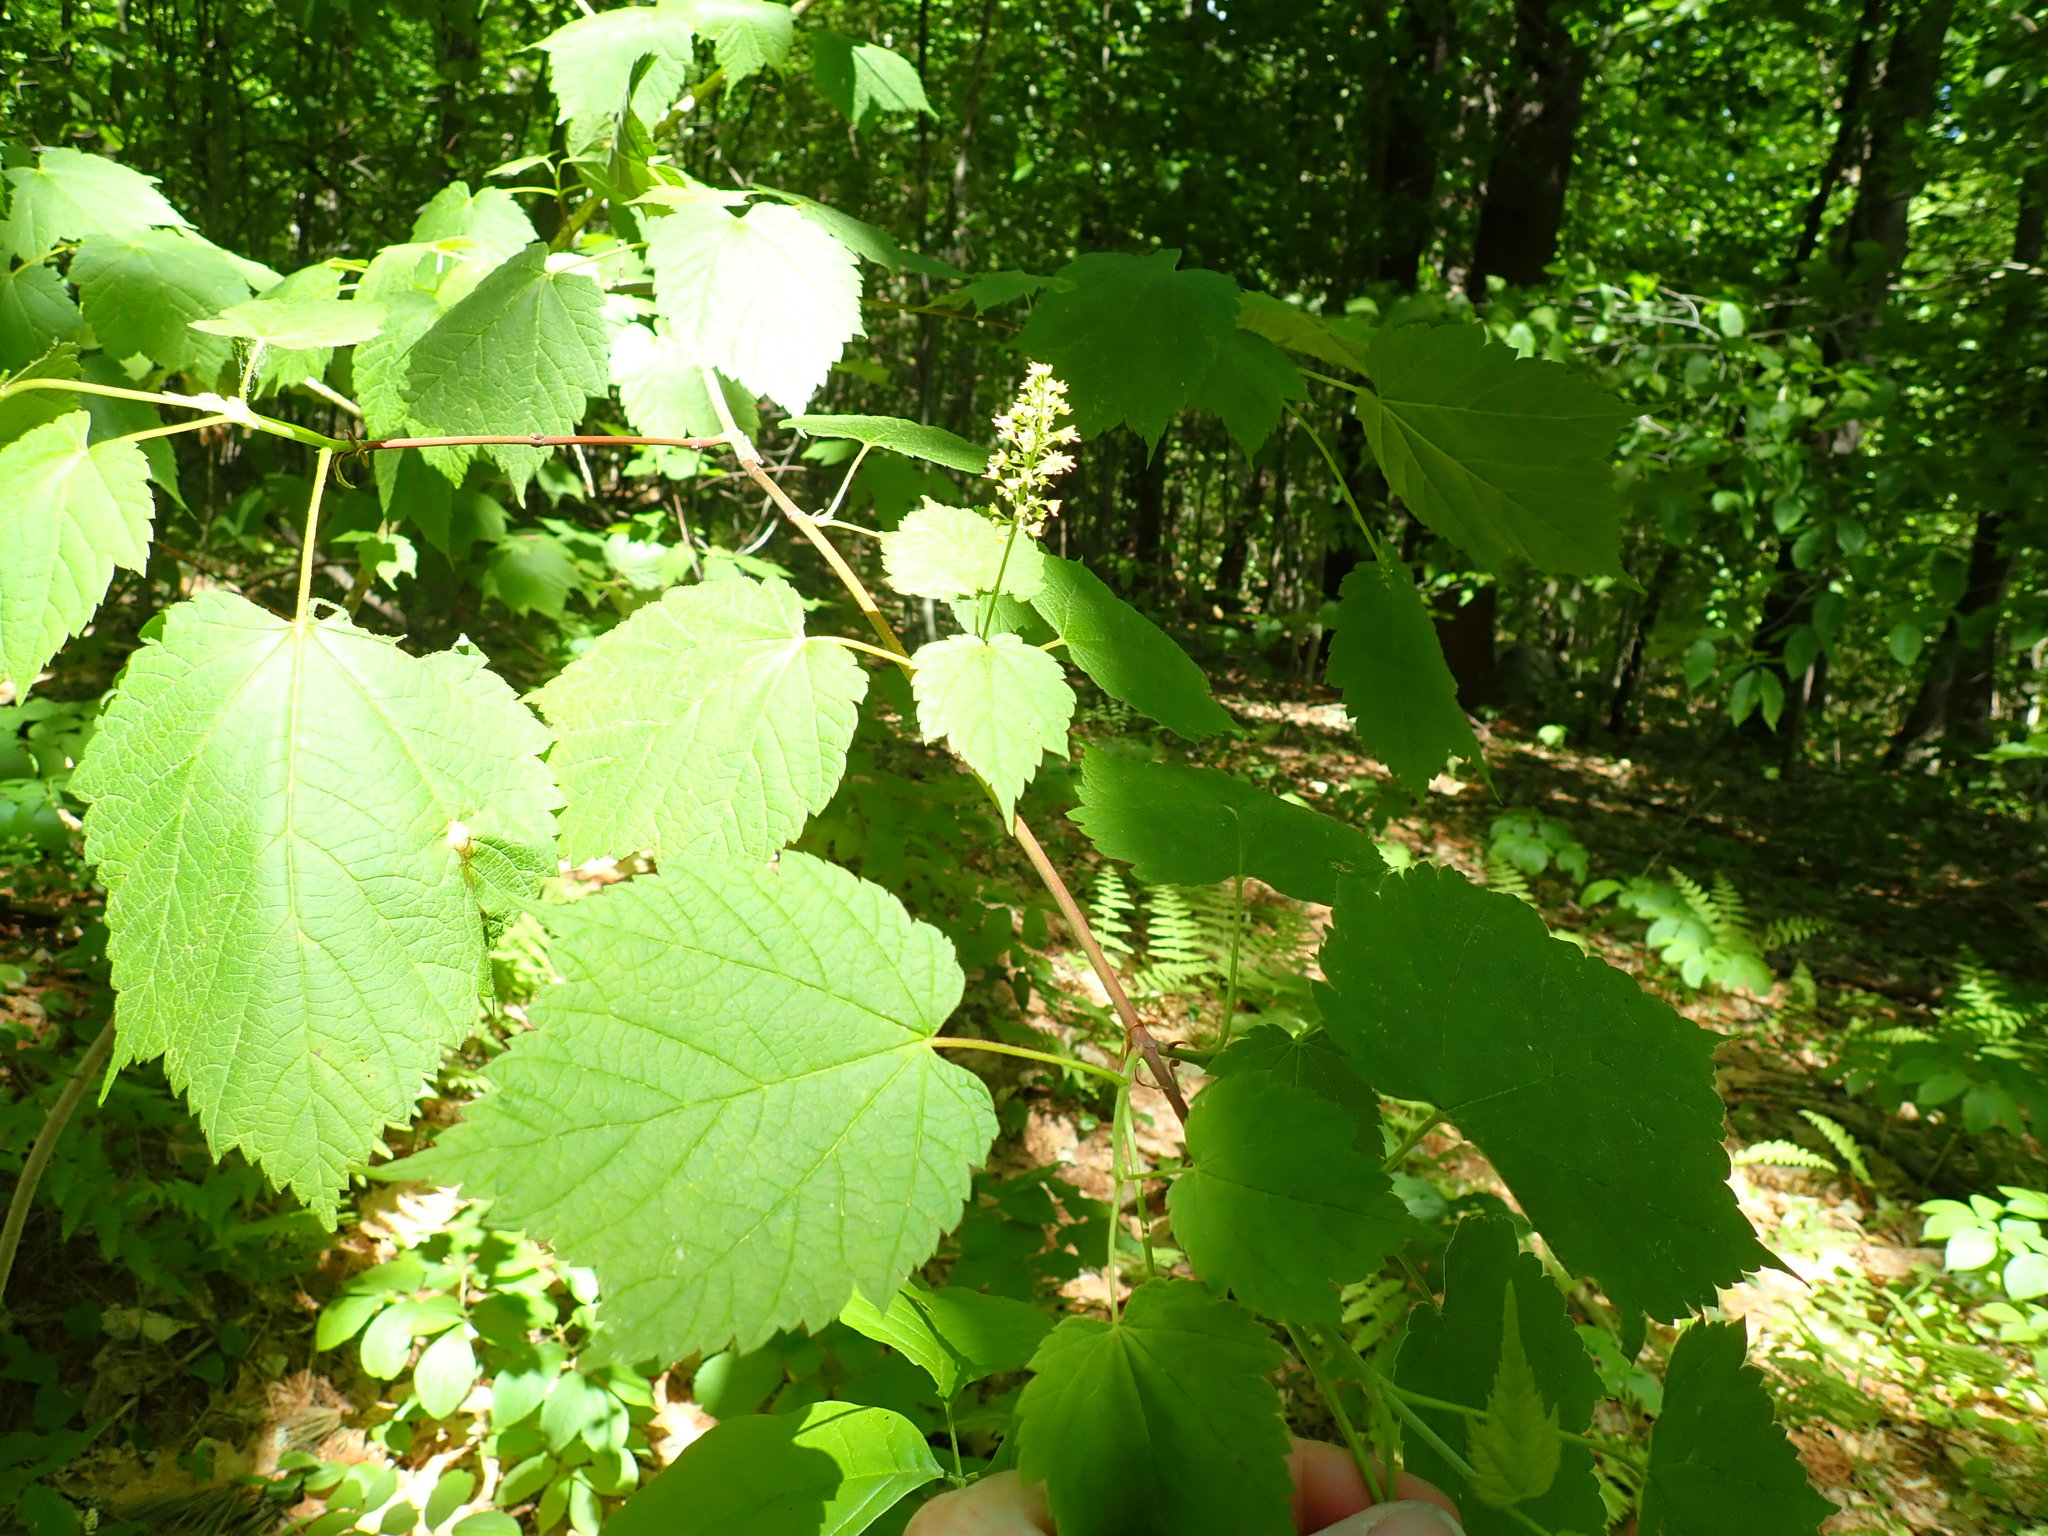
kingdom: Plantae
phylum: Tracheophyta
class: Magnoliopsida
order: Sapindales
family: Sapindaceae
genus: Acer
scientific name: Acer spicatum
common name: Mountain maple
